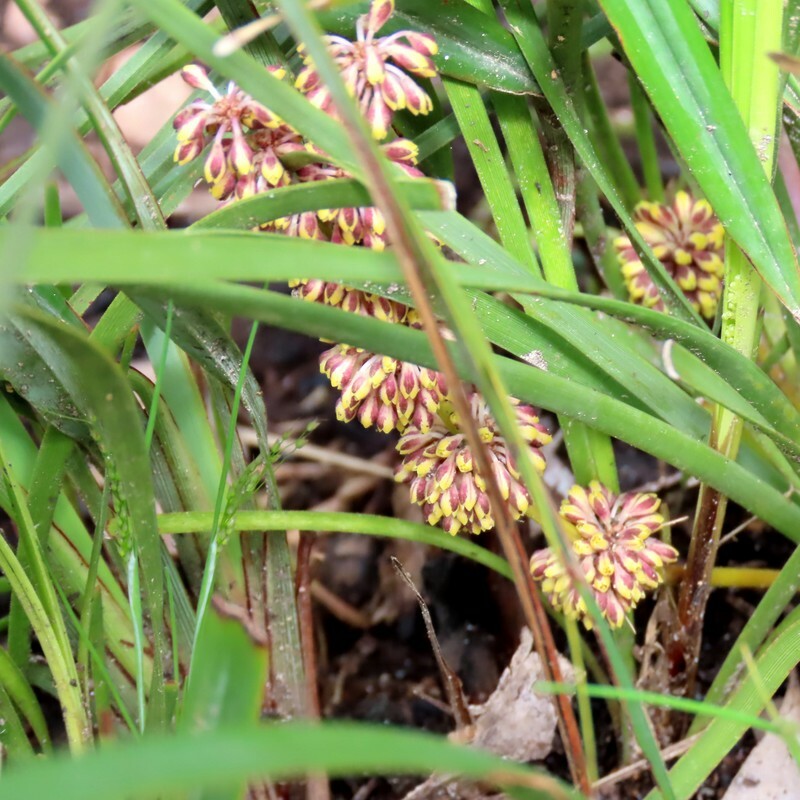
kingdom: Plantae
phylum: Tracheophyta
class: Liliopsida
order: Asparagales
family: Asparagaceae
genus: Lomandra
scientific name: Lomandra multiflora
